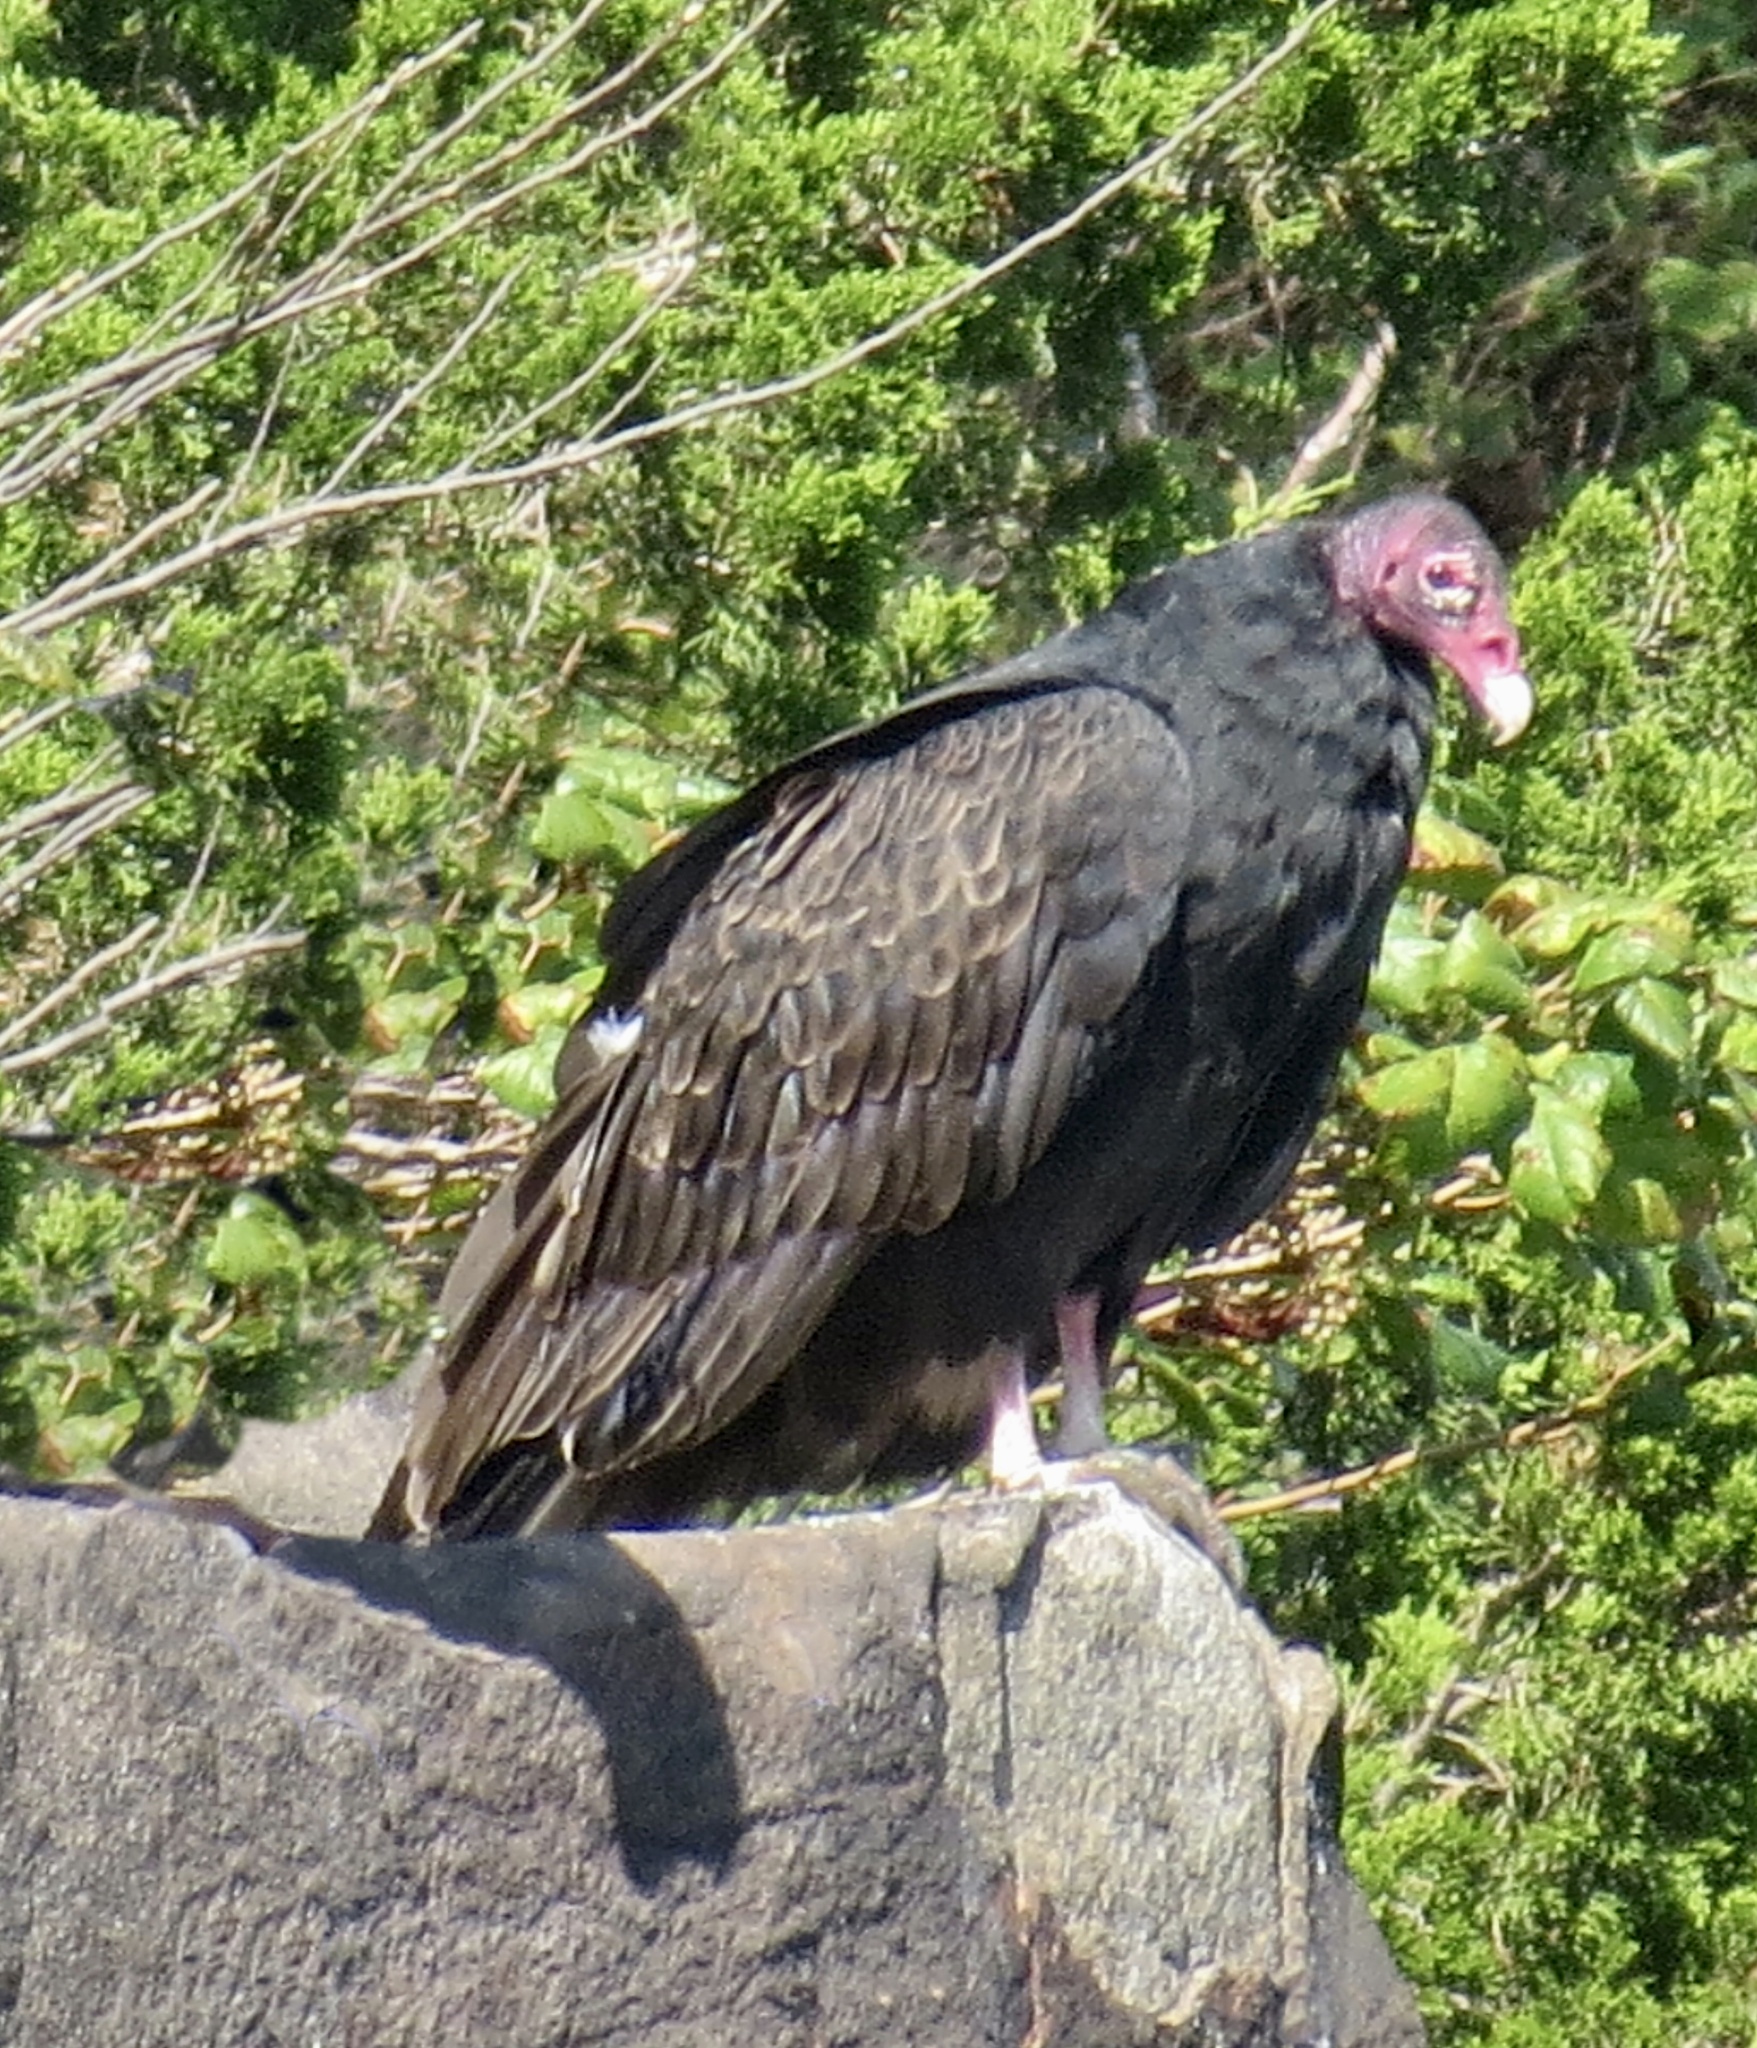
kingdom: Animalia
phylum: Chordata
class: Aves
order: Accipitriformes
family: Cathartidae
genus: Cathartes
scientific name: Cathartes aura
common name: Turkey vulture
